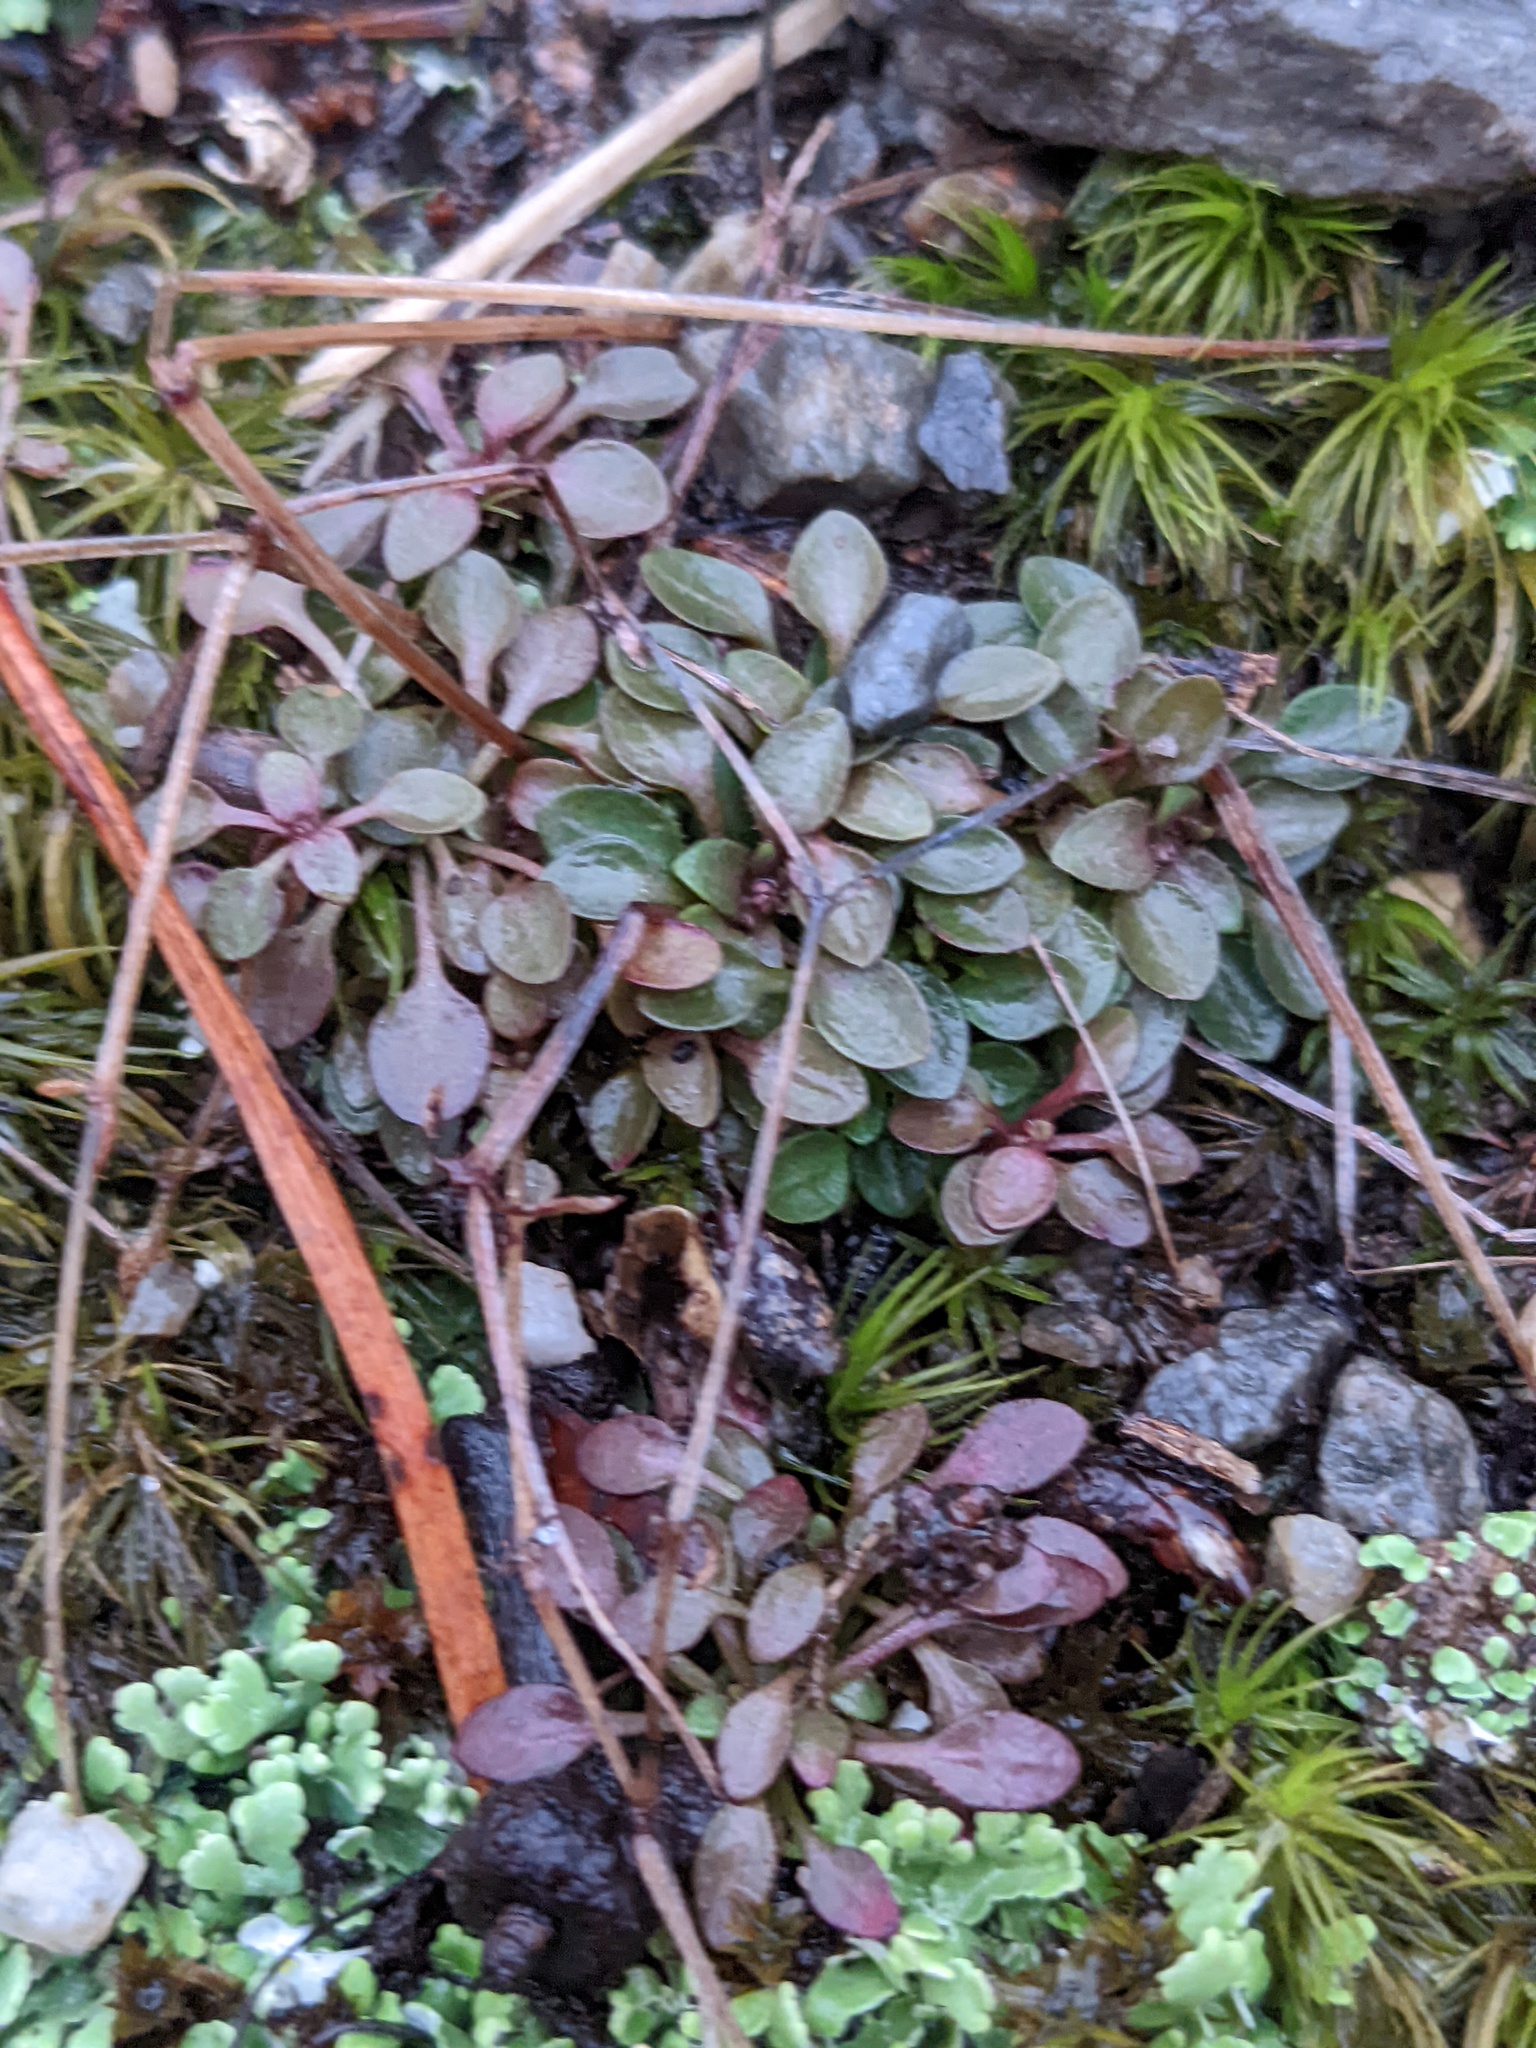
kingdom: Plantae
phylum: Tracheophyta
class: Magnoliopsida
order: Gentianales
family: Rubiaceae
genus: Houstonia
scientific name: Houstonia caerulea
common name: Bluets
